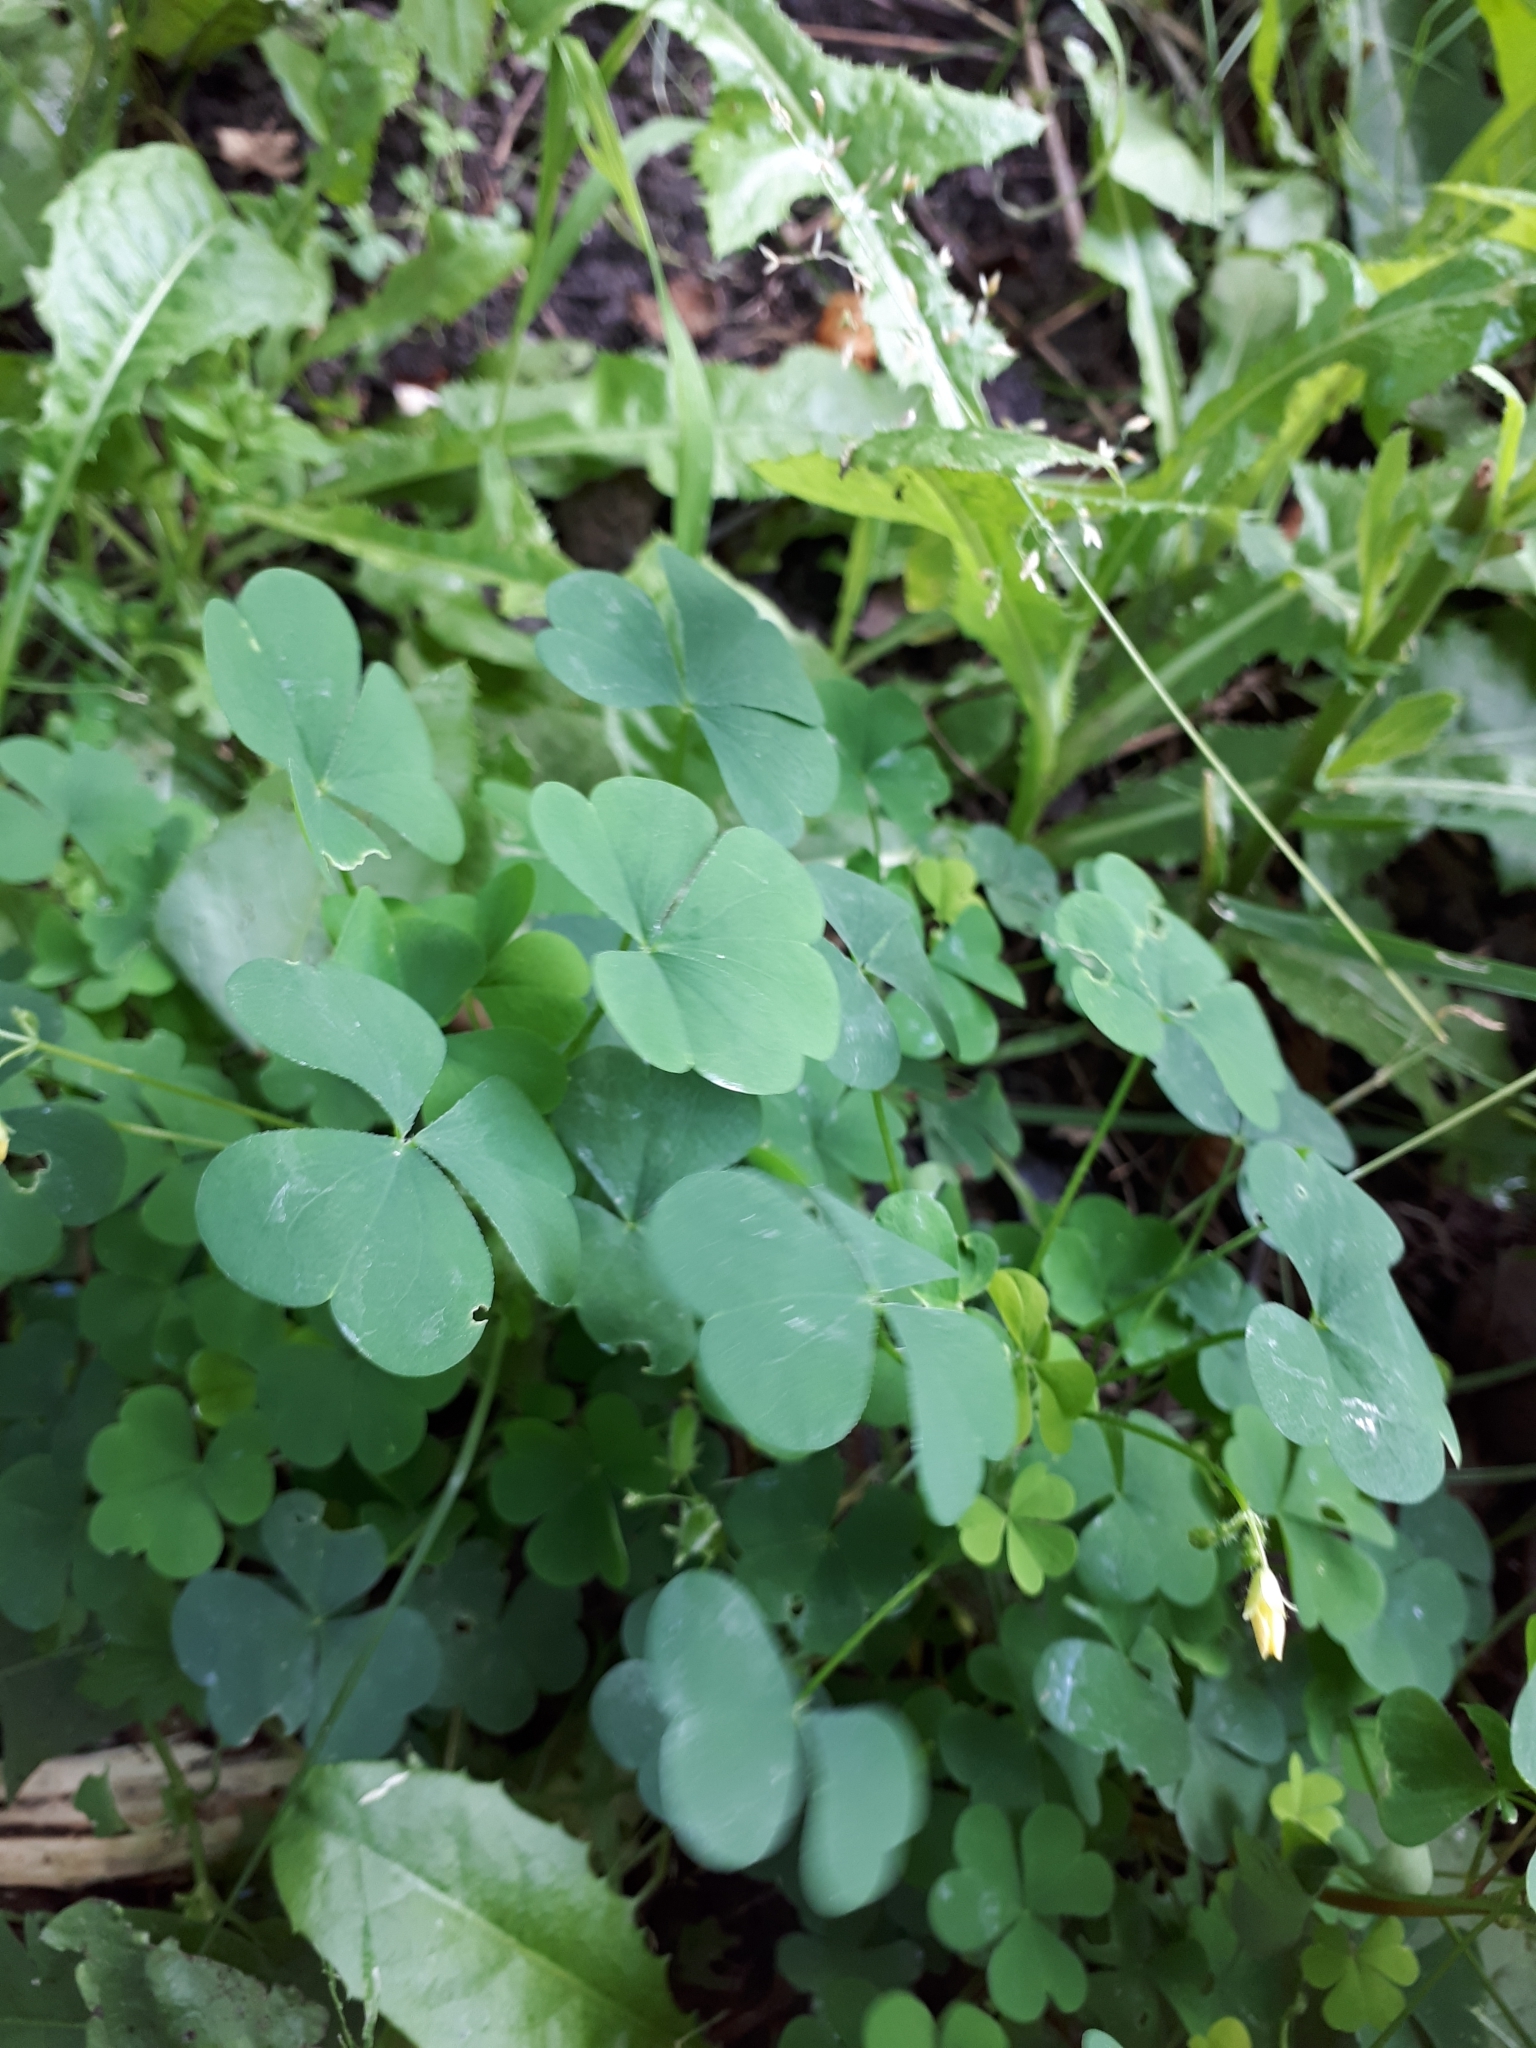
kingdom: Plantae
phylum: Tracheophyta
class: Magnoliopsida
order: Oxalidales
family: Oxalidaceae
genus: Oxalis
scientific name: Oxalis stricta
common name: Upright yellow-sorrel
